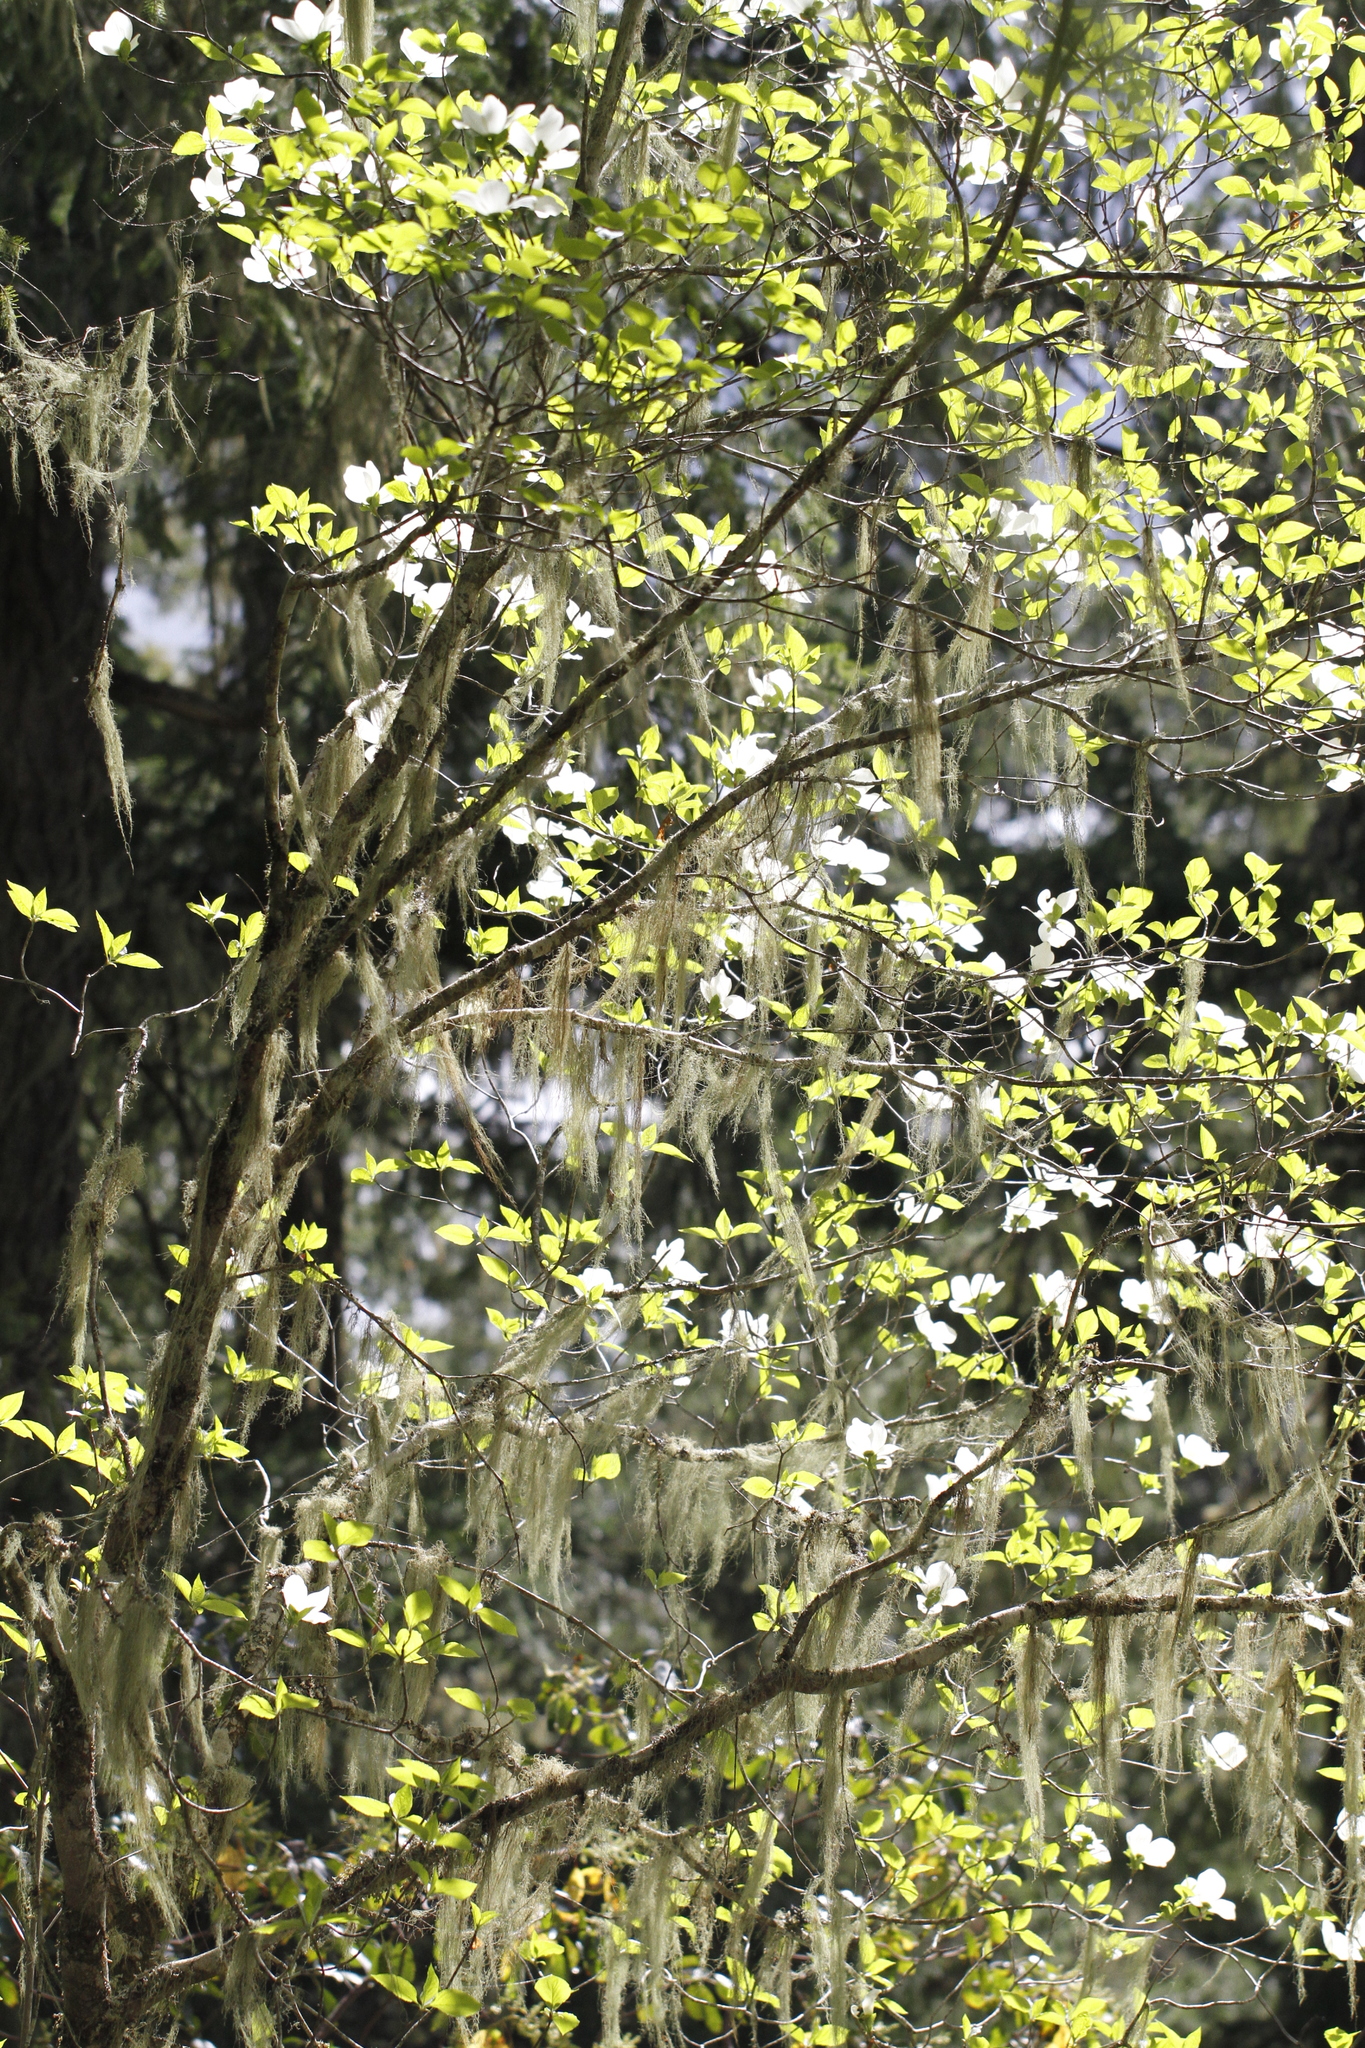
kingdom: Plantae
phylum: Tracheophyta
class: Magnoliopsida
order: Cornales
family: Cornaceae
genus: Cornus
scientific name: Cornus nuttallii
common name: Pacific dogwood
